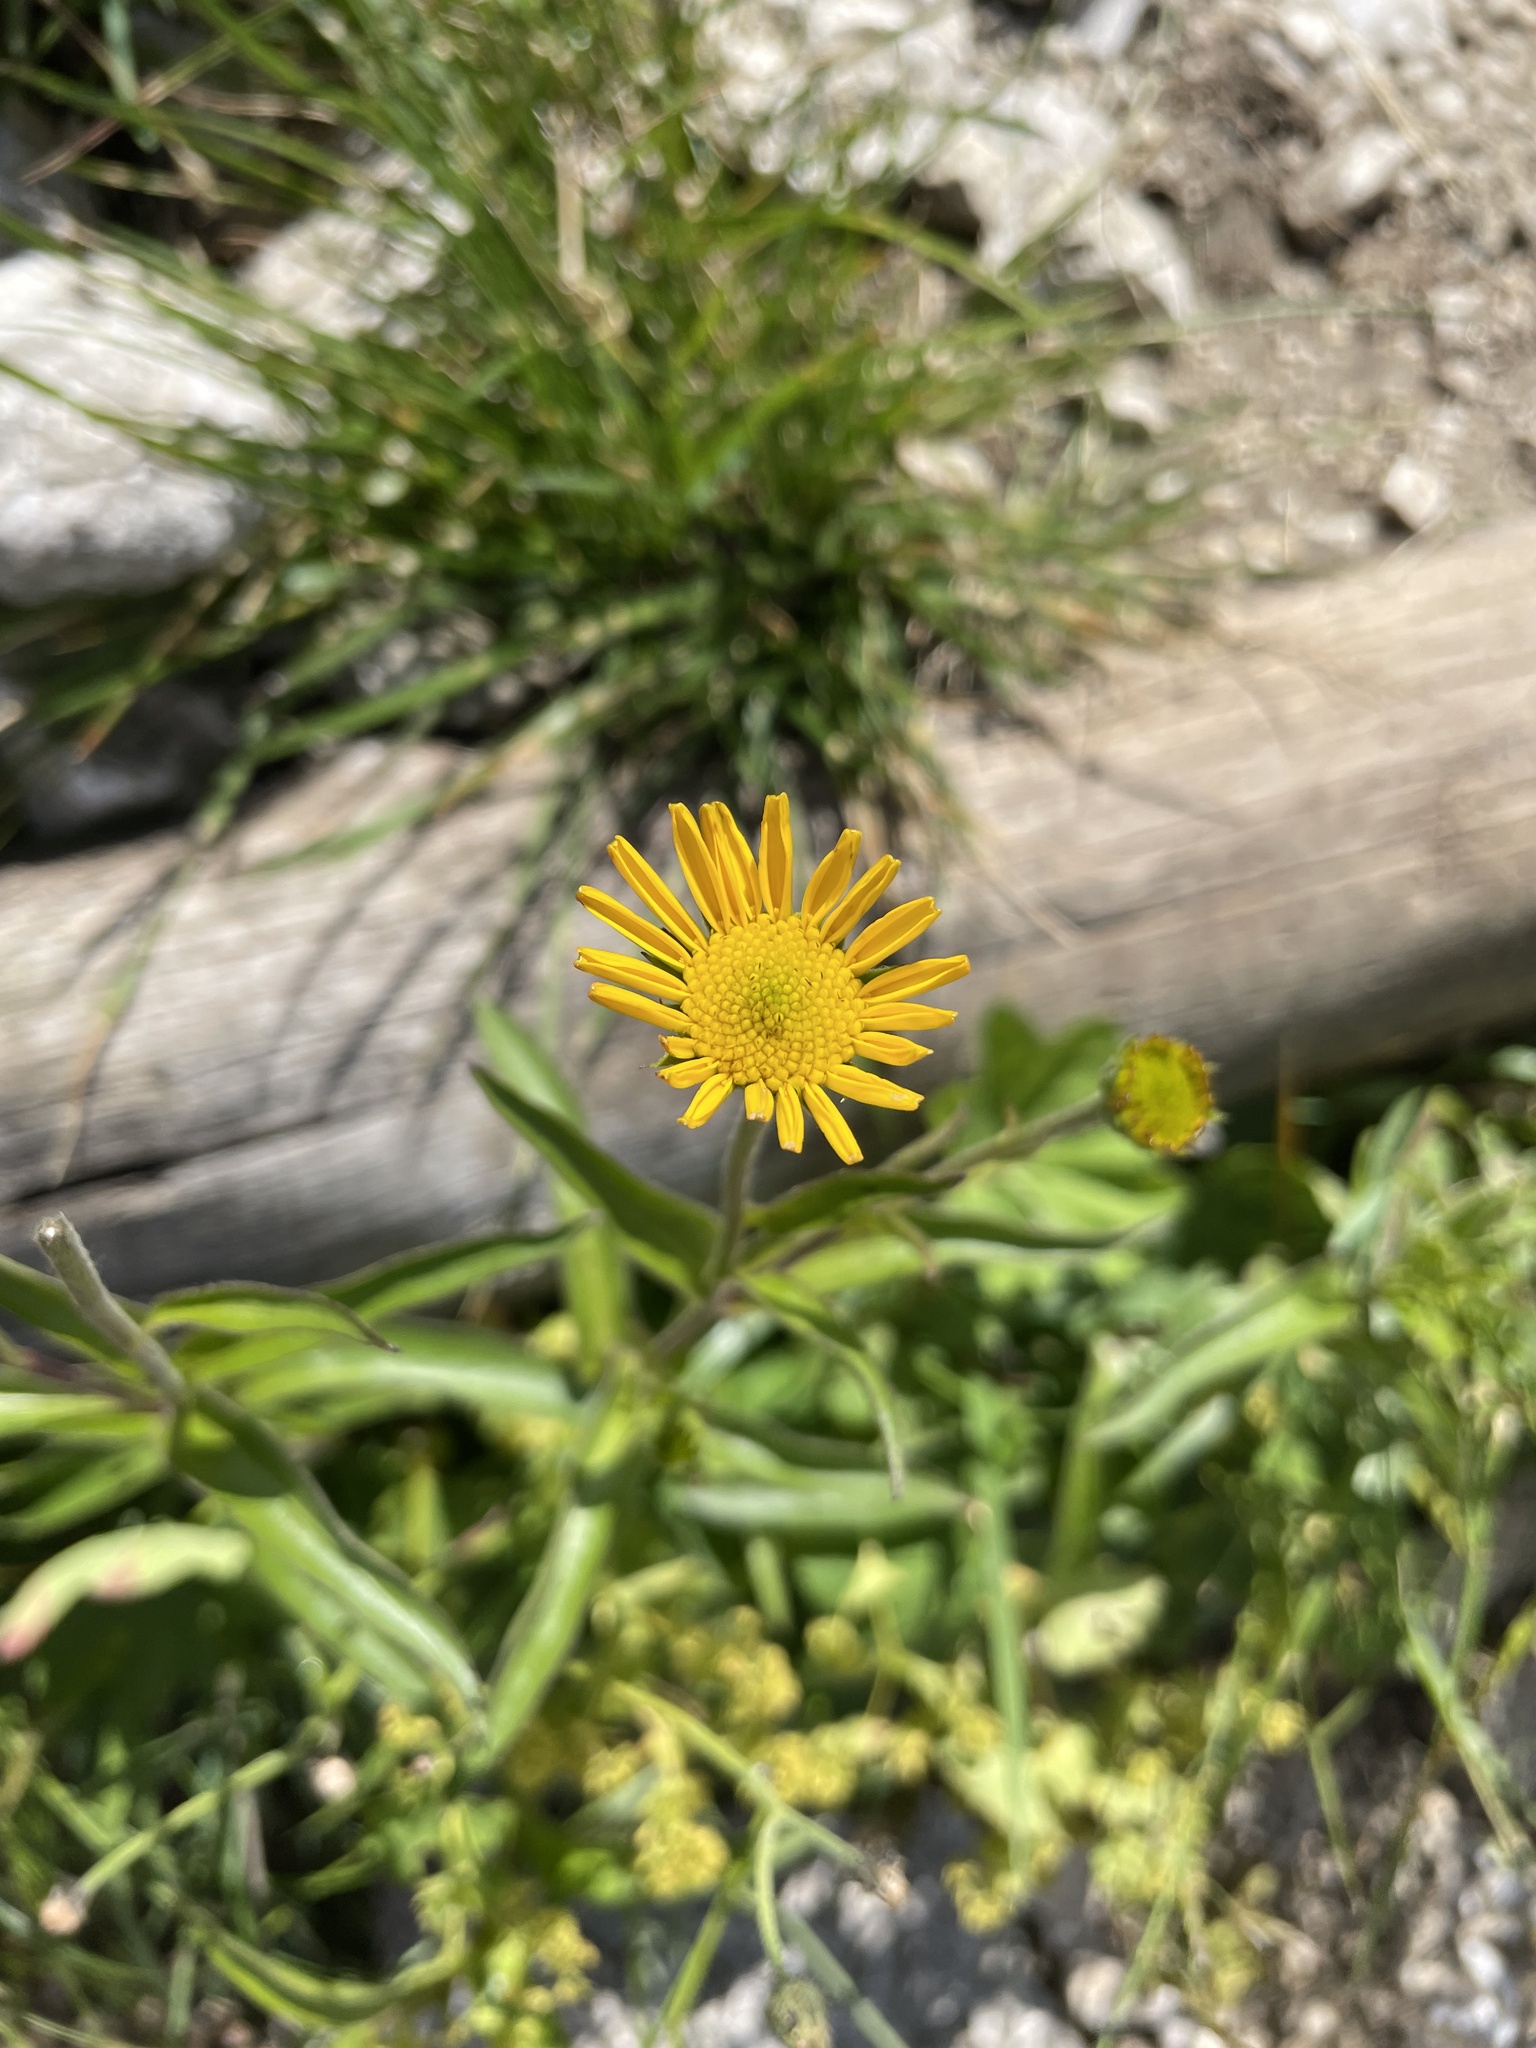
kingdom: Plantae
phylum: Tracheophyta
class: Magnoliopsida
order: Asterales
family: Asteraceae
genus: Buphthalmum
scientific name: Buphthalmum salicifolium
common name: Willow-leaved yellow-oxeye
